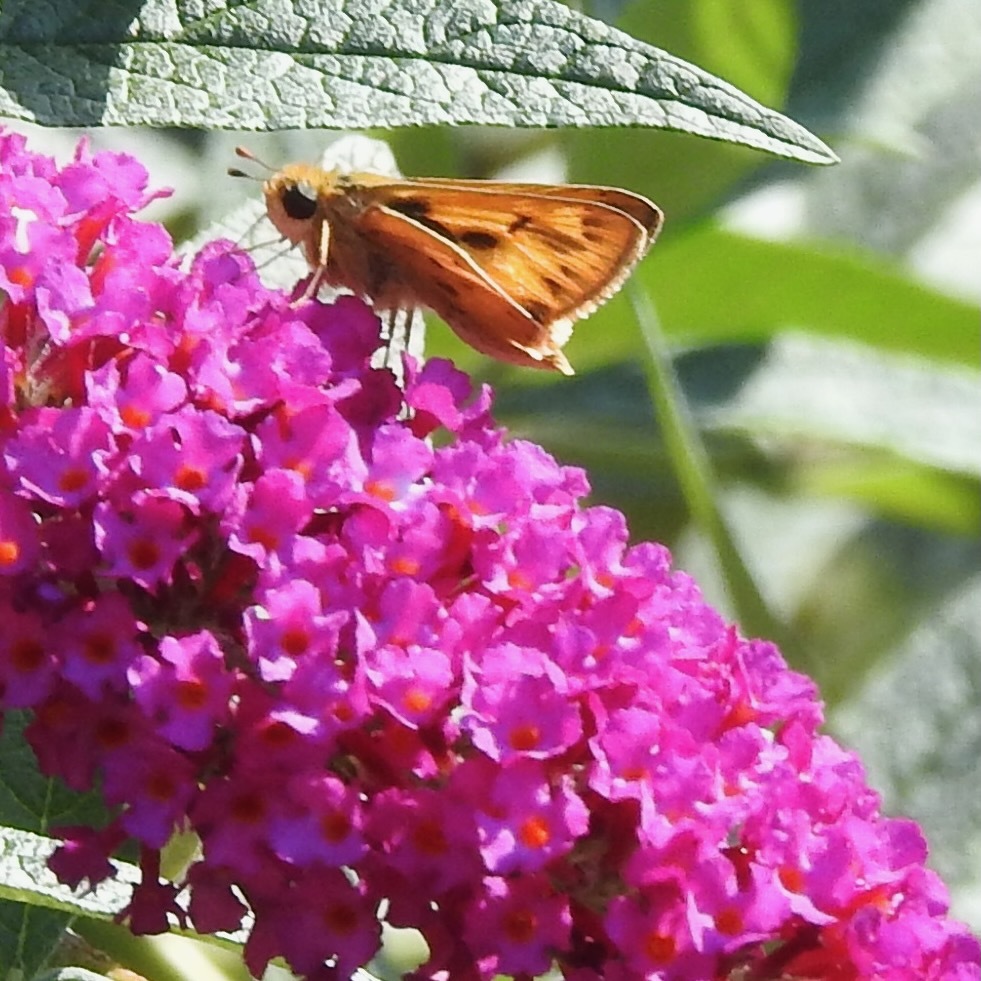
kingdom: Animalia
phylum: Arthropoda
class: Insecta
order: Lepidoptera
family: Hesperiidae
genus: Hylephila
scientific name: Hylephila phyleus
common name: Fiery skipper
